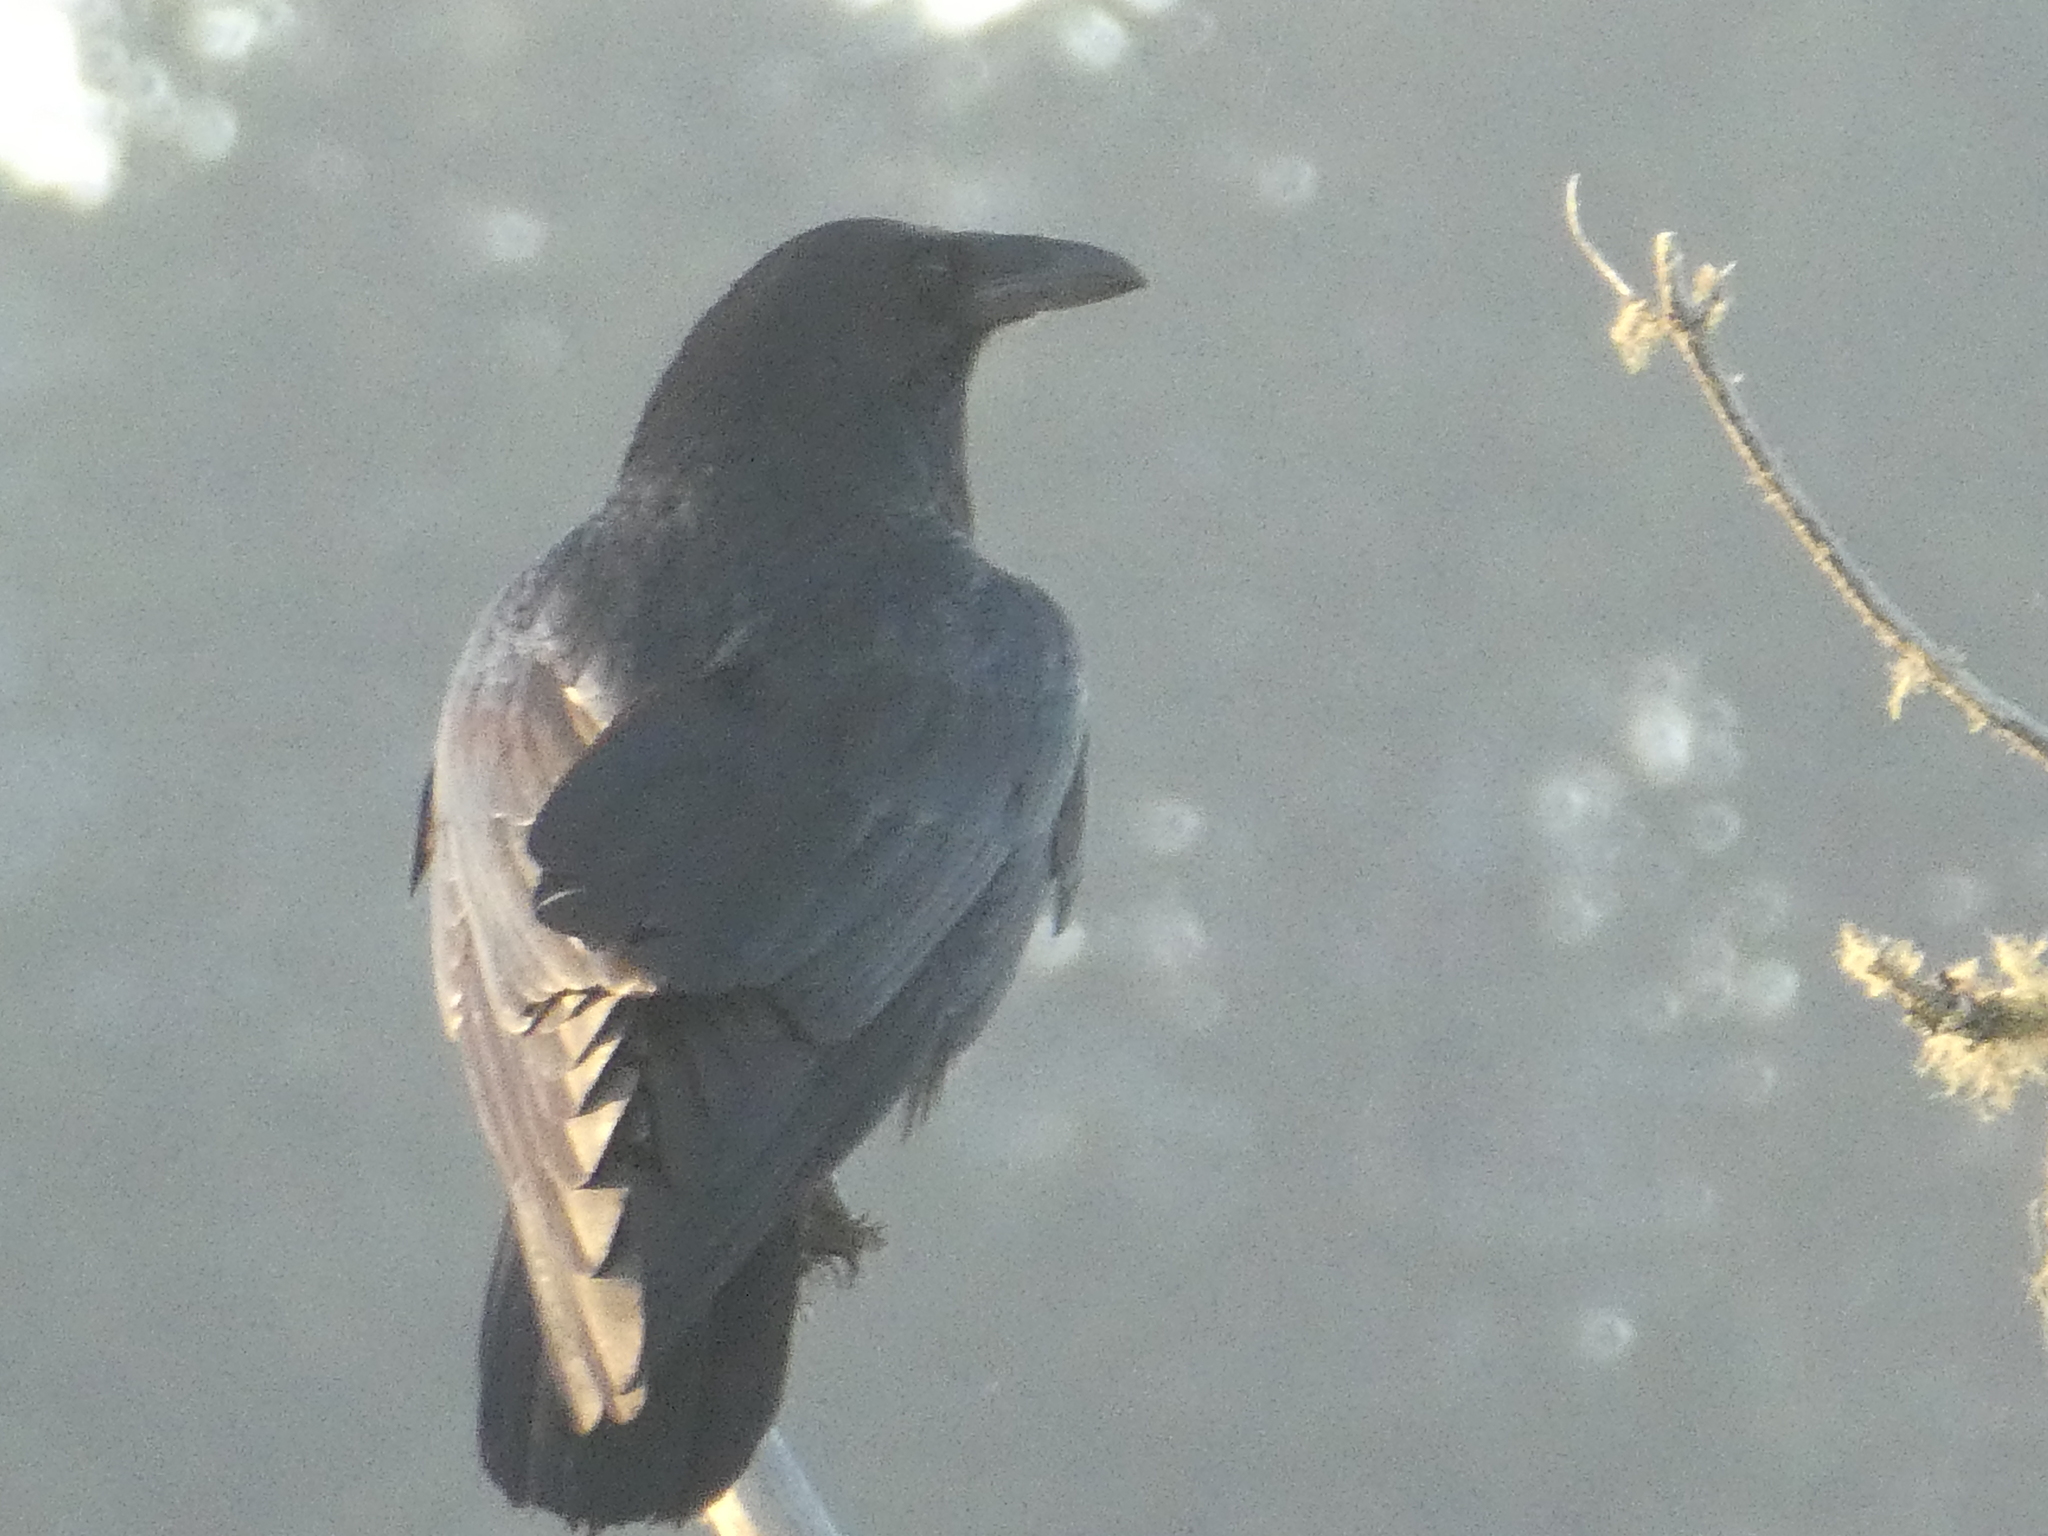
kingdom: Animalia
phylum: Chordata
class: Aves
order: Passeriformes
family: Corvidae
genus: Corvus
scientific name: Corvus corax
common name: Common raven
